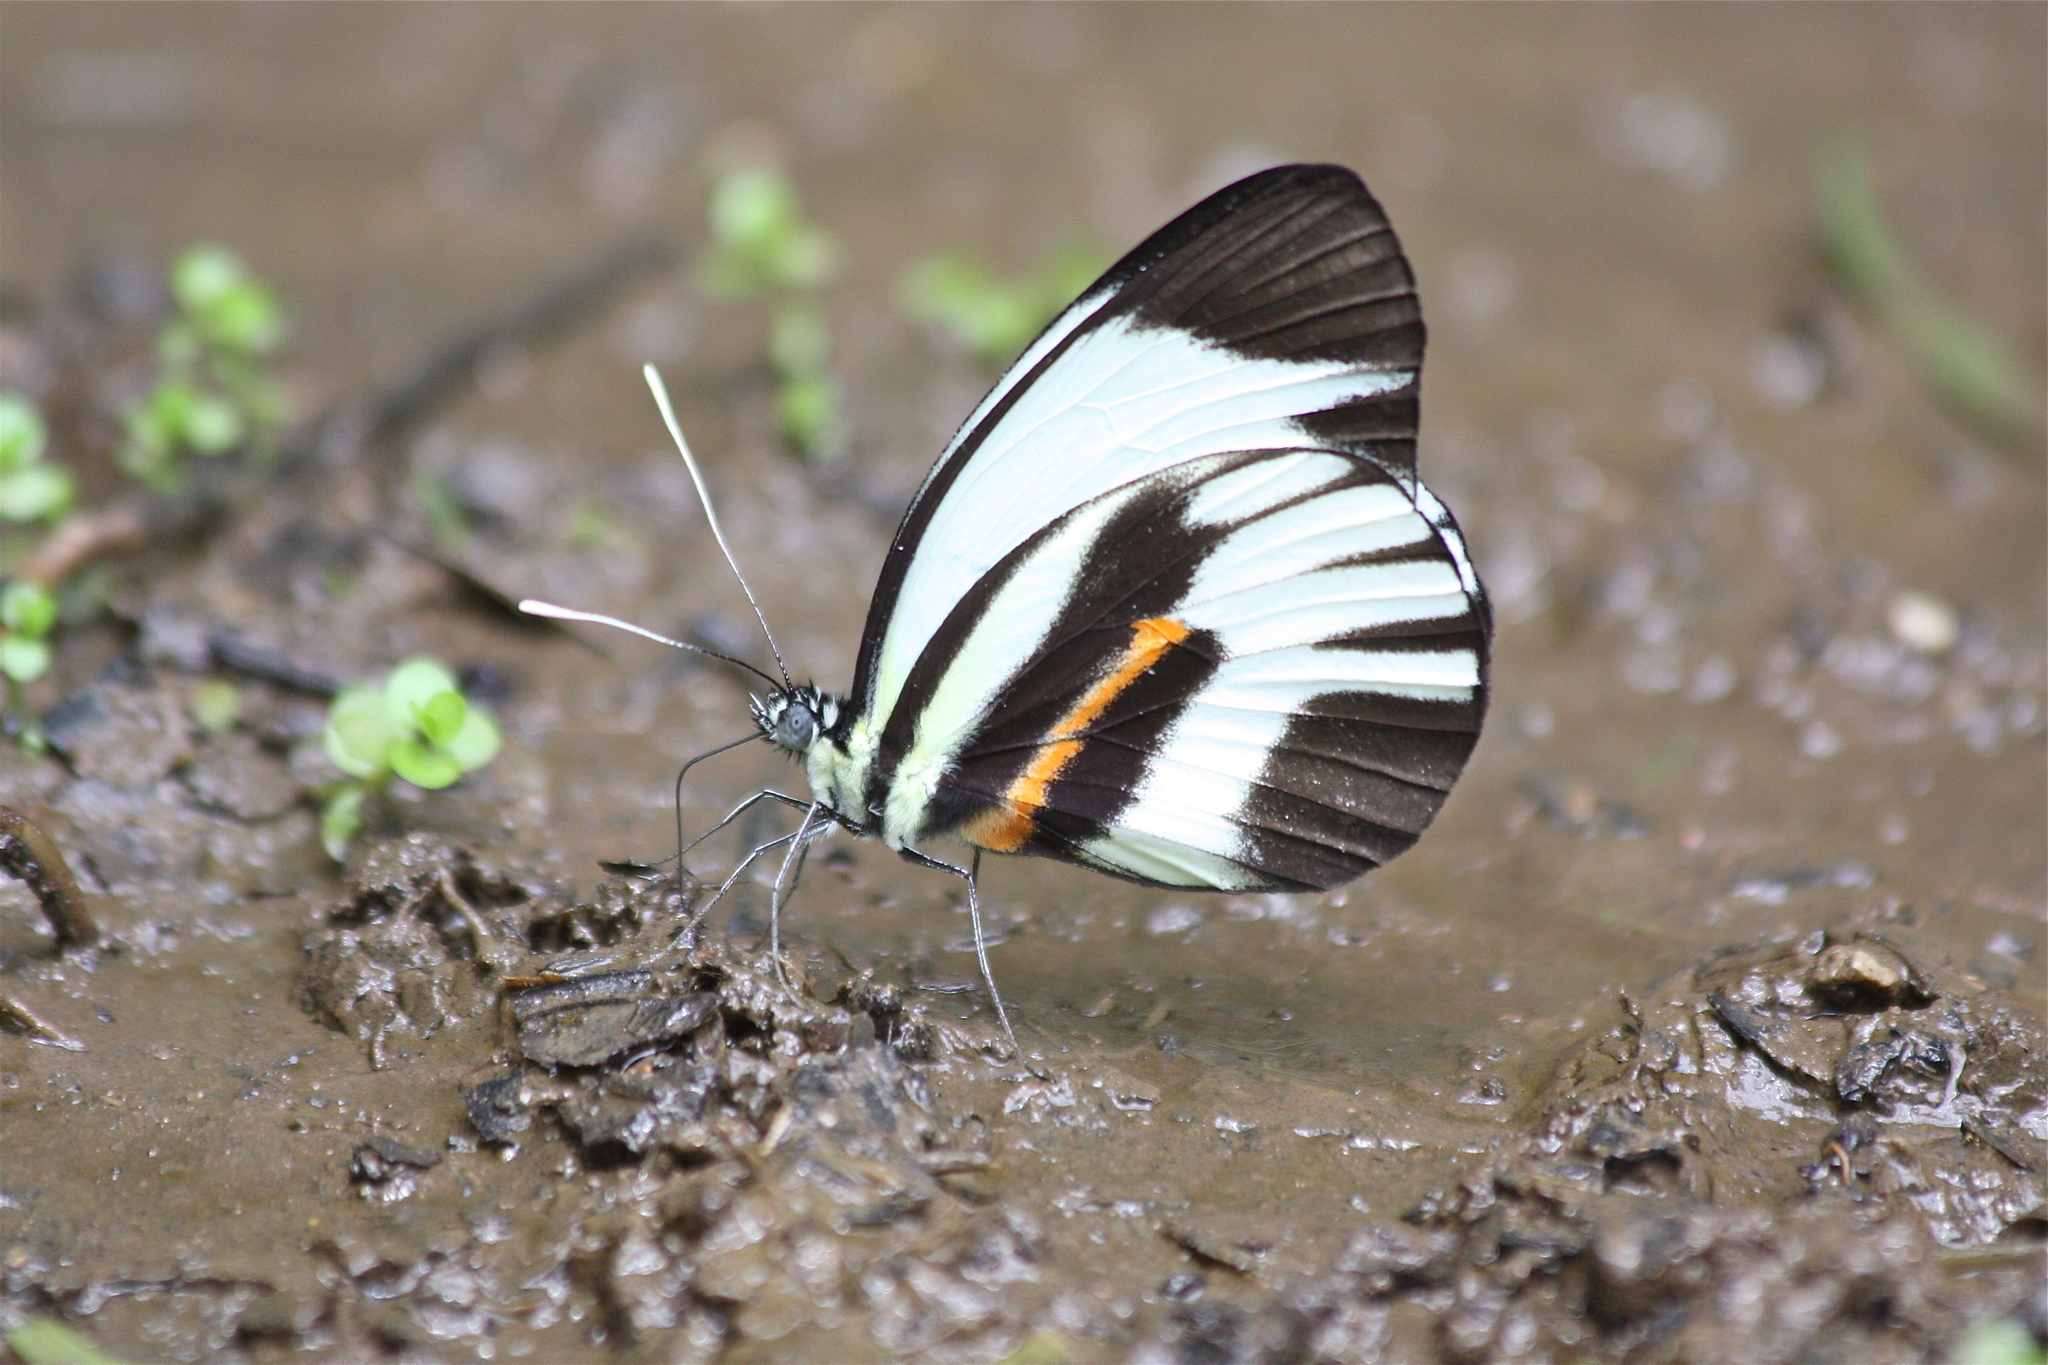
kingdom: Animalia
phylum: Arthropoda
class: Insecta
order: Lepidoptera
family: Pieridae
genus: Perrhybris
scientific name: Perrhybris pamela
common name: Chiapas white
